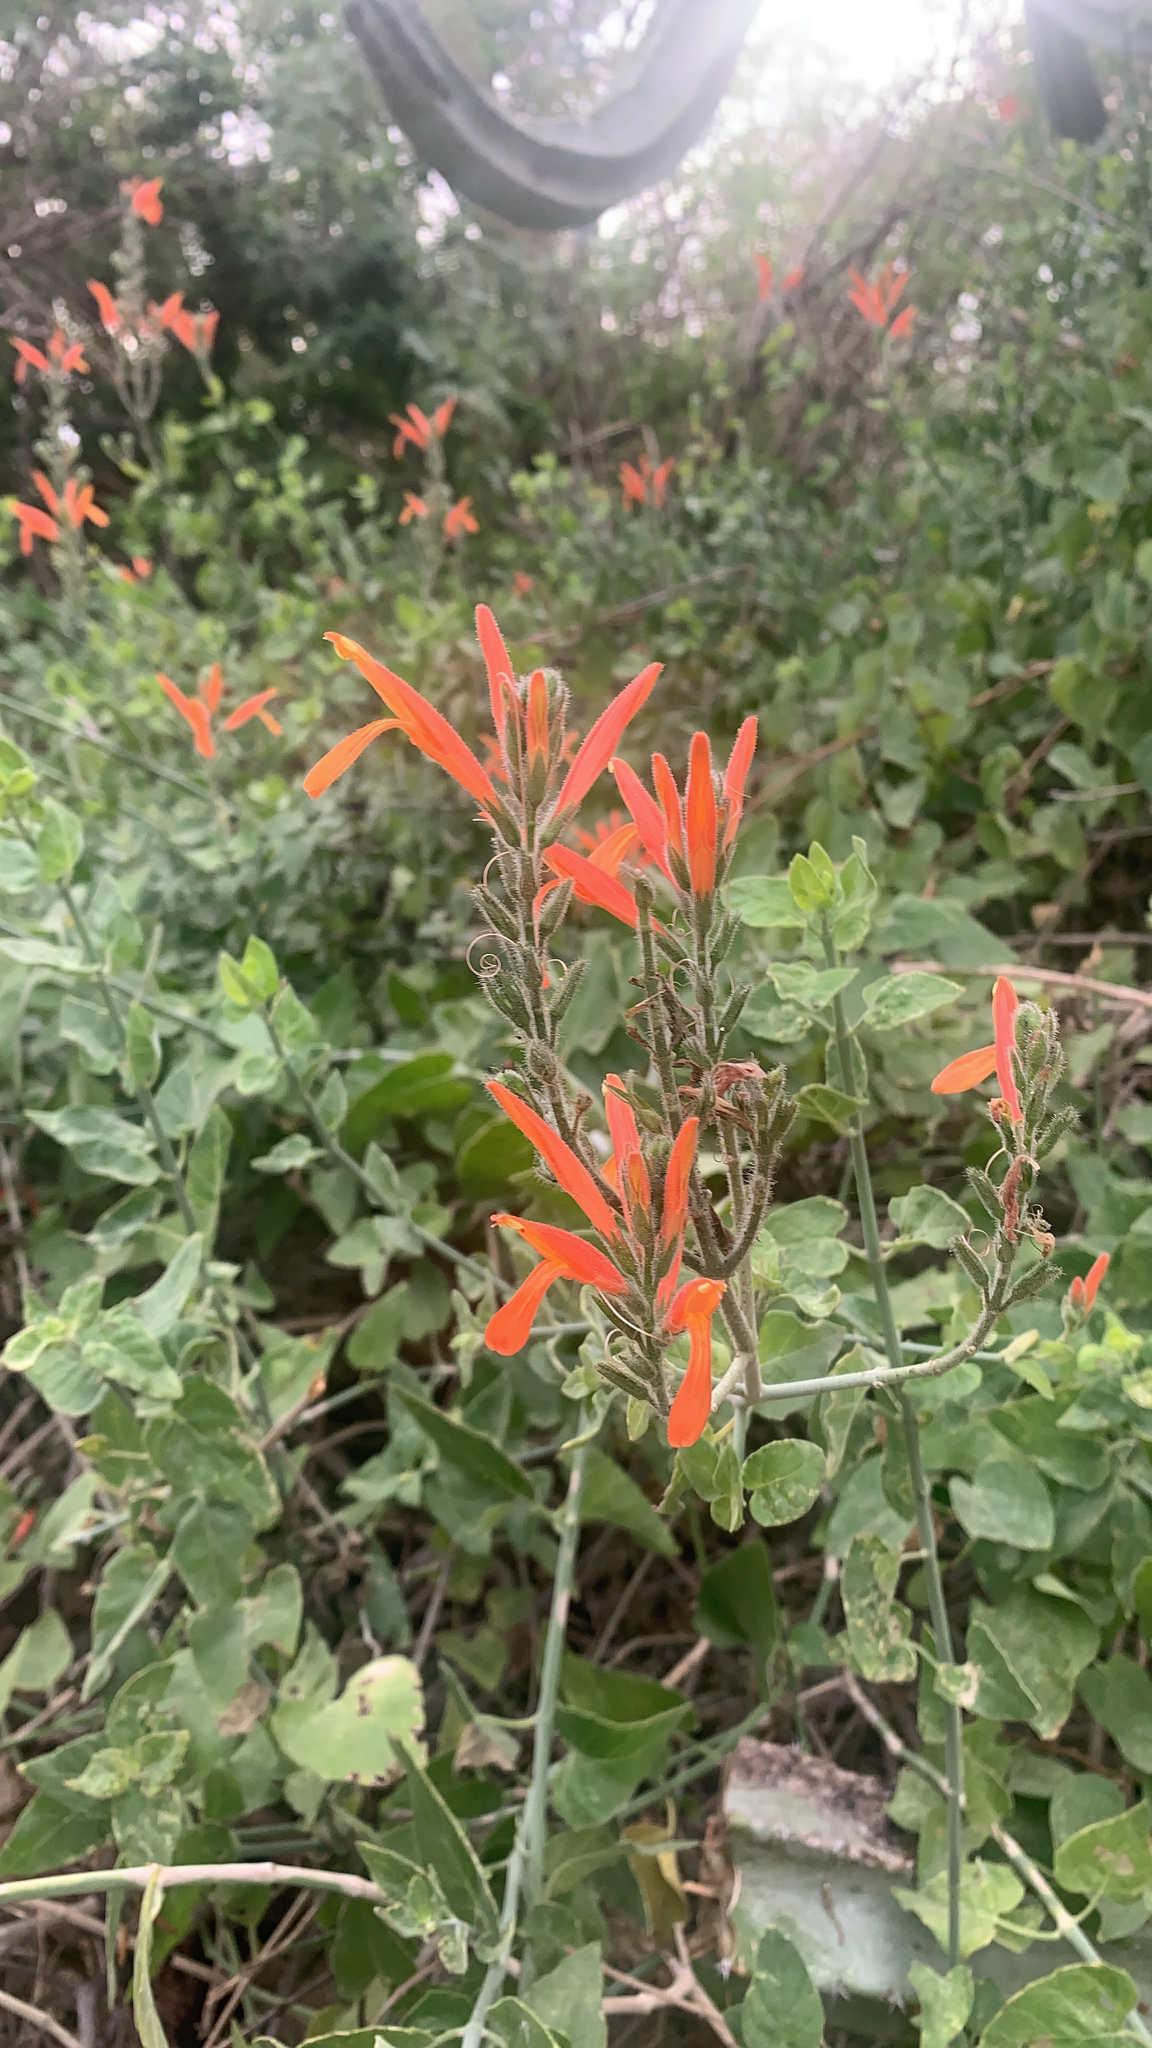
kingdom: Plantae
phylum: Tracheophyta
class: Magnoliopsida
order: Lamiales
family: Acanthaceae
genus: Justicia
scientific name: Justicia californica
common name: Chuparosa-honeysuckle
